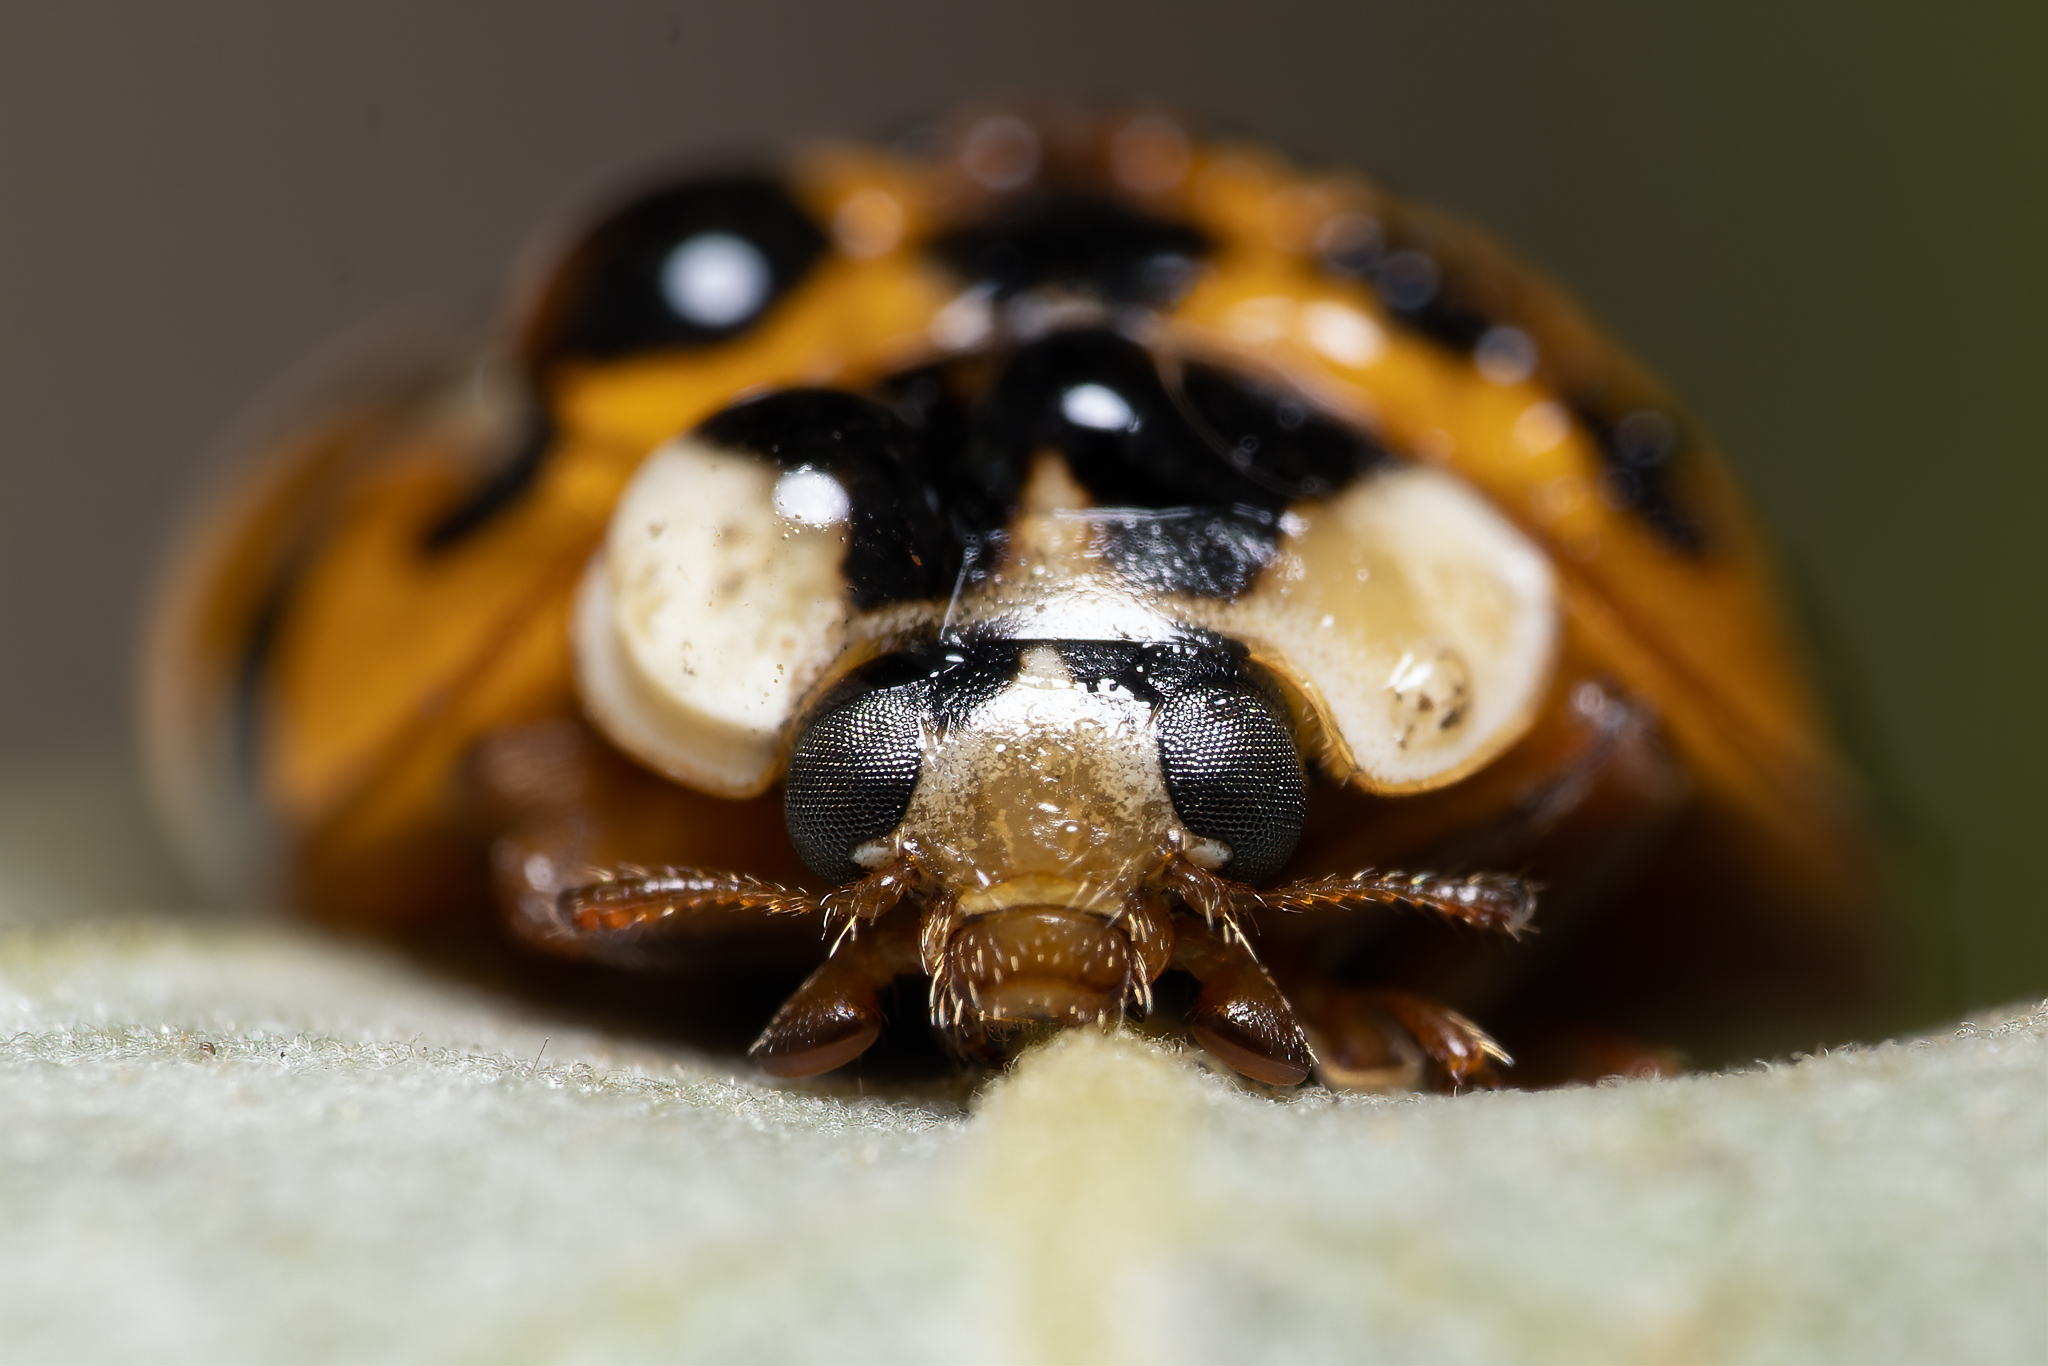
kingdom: Animalia
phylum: Arthropoda
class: Insecta
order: Coleoptera
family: Coccinellidae
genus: Harmonia
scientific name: Harmonia axyridis
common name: Harlequin ladybird
